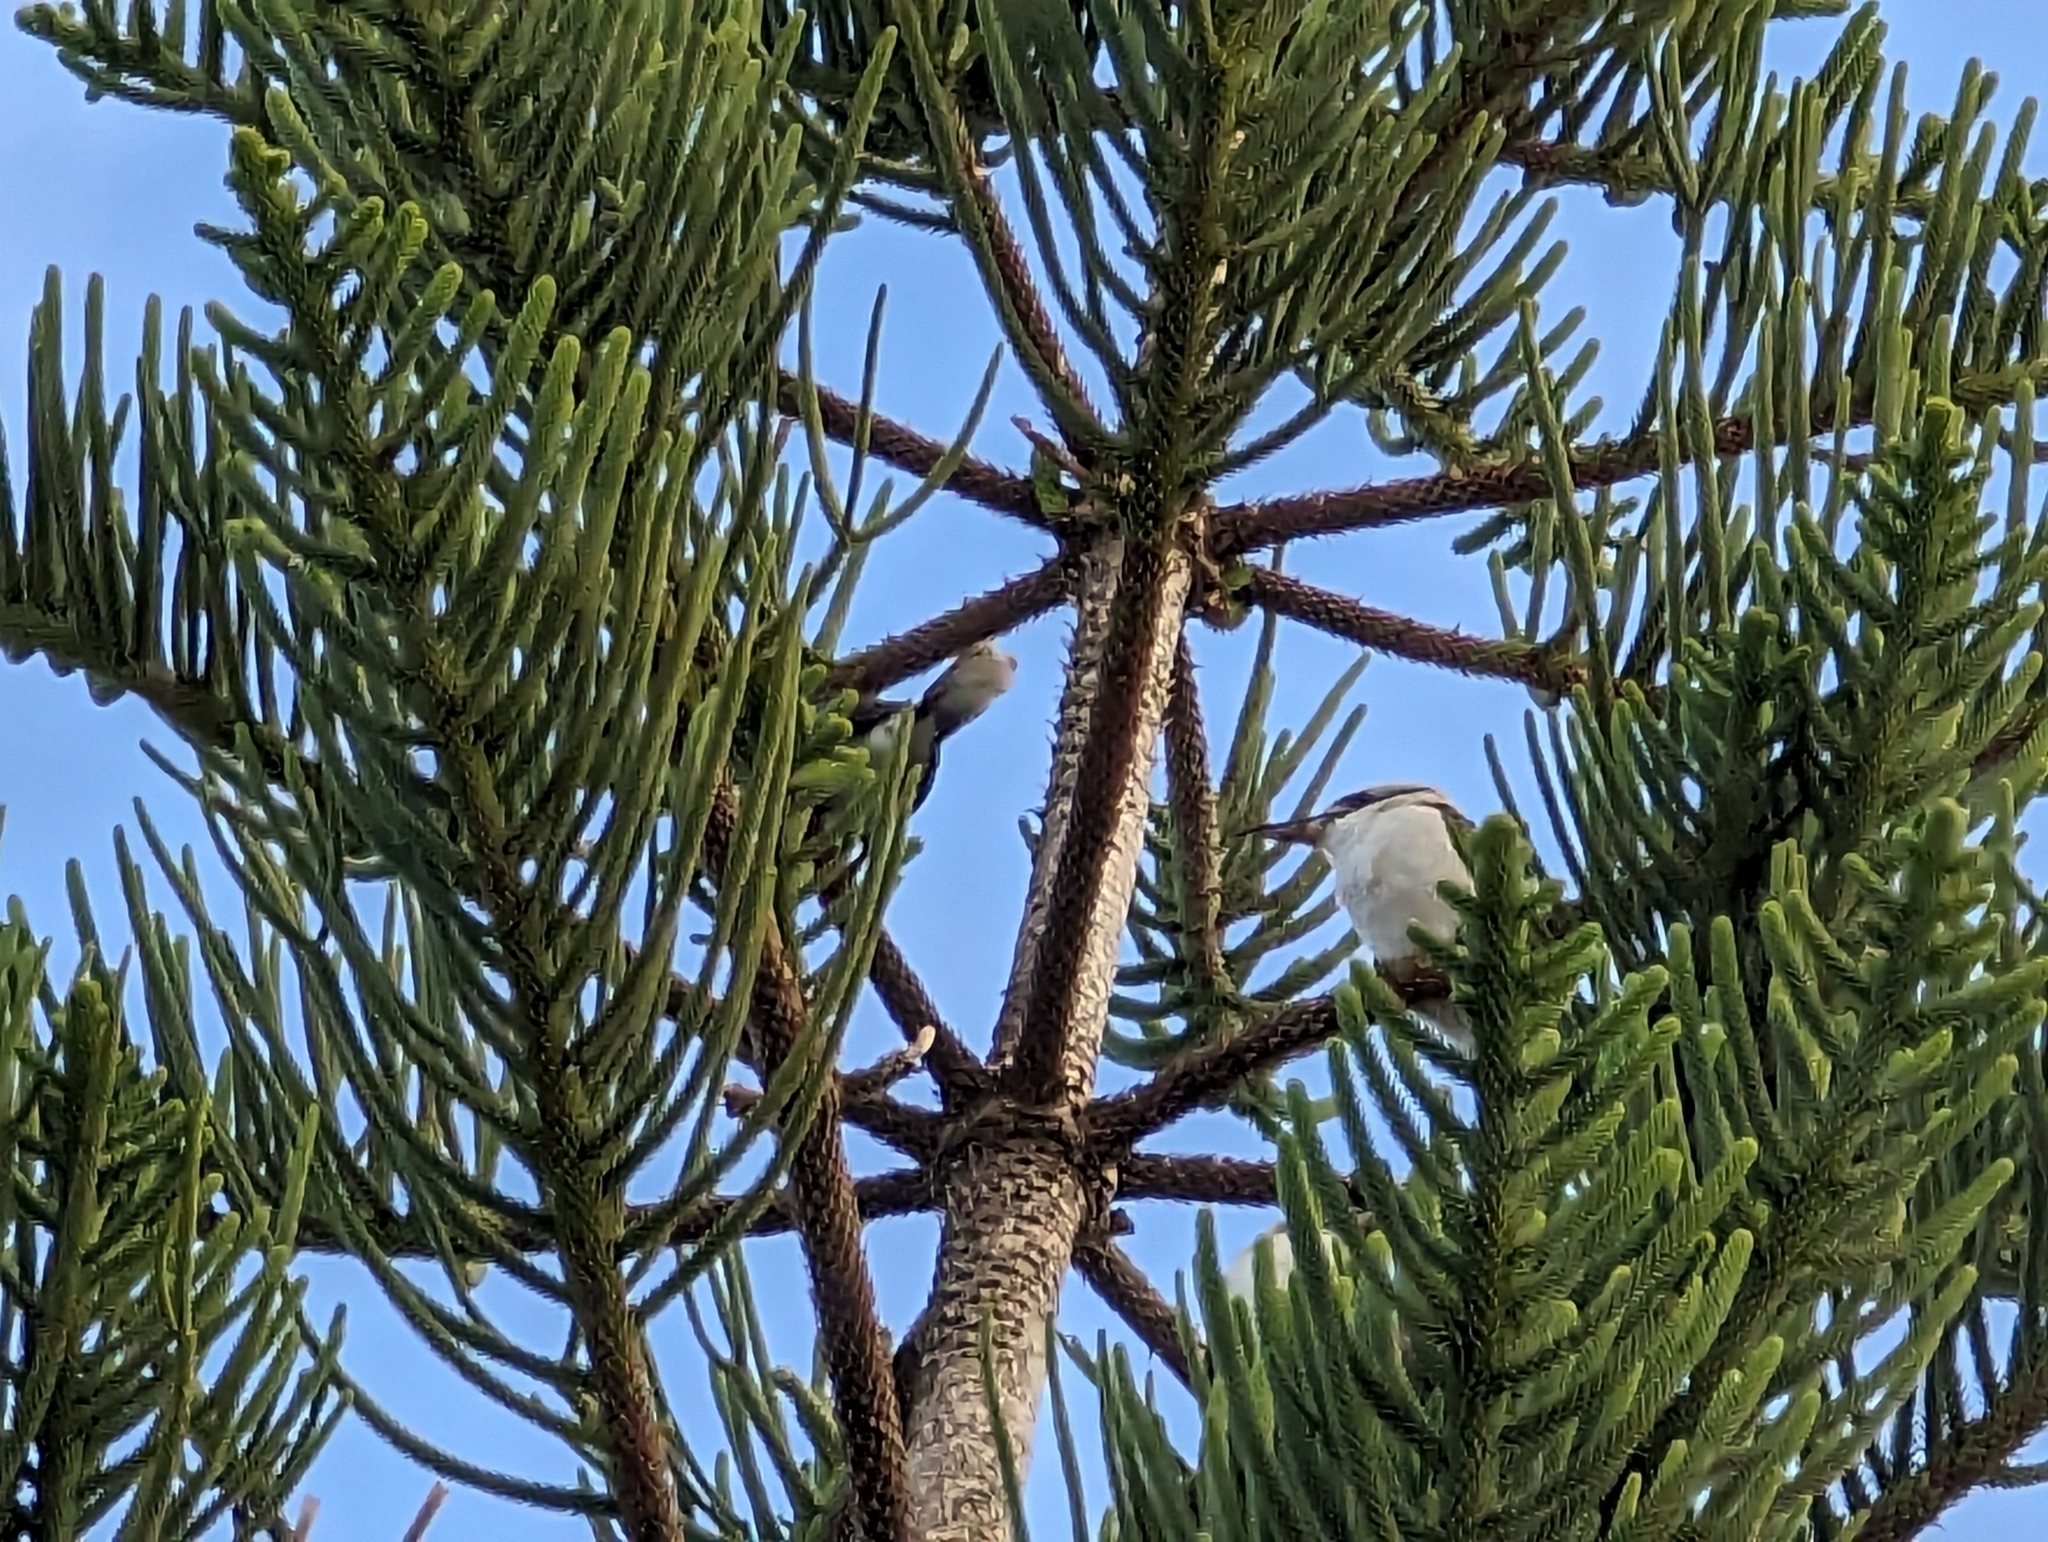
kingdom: Animalia
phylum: Chordata
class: Aves
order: Coraciiformes
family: Alcedinidae
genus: Dacelo
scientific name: Dacelo novaeguineae
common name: Laughing kookaburra
